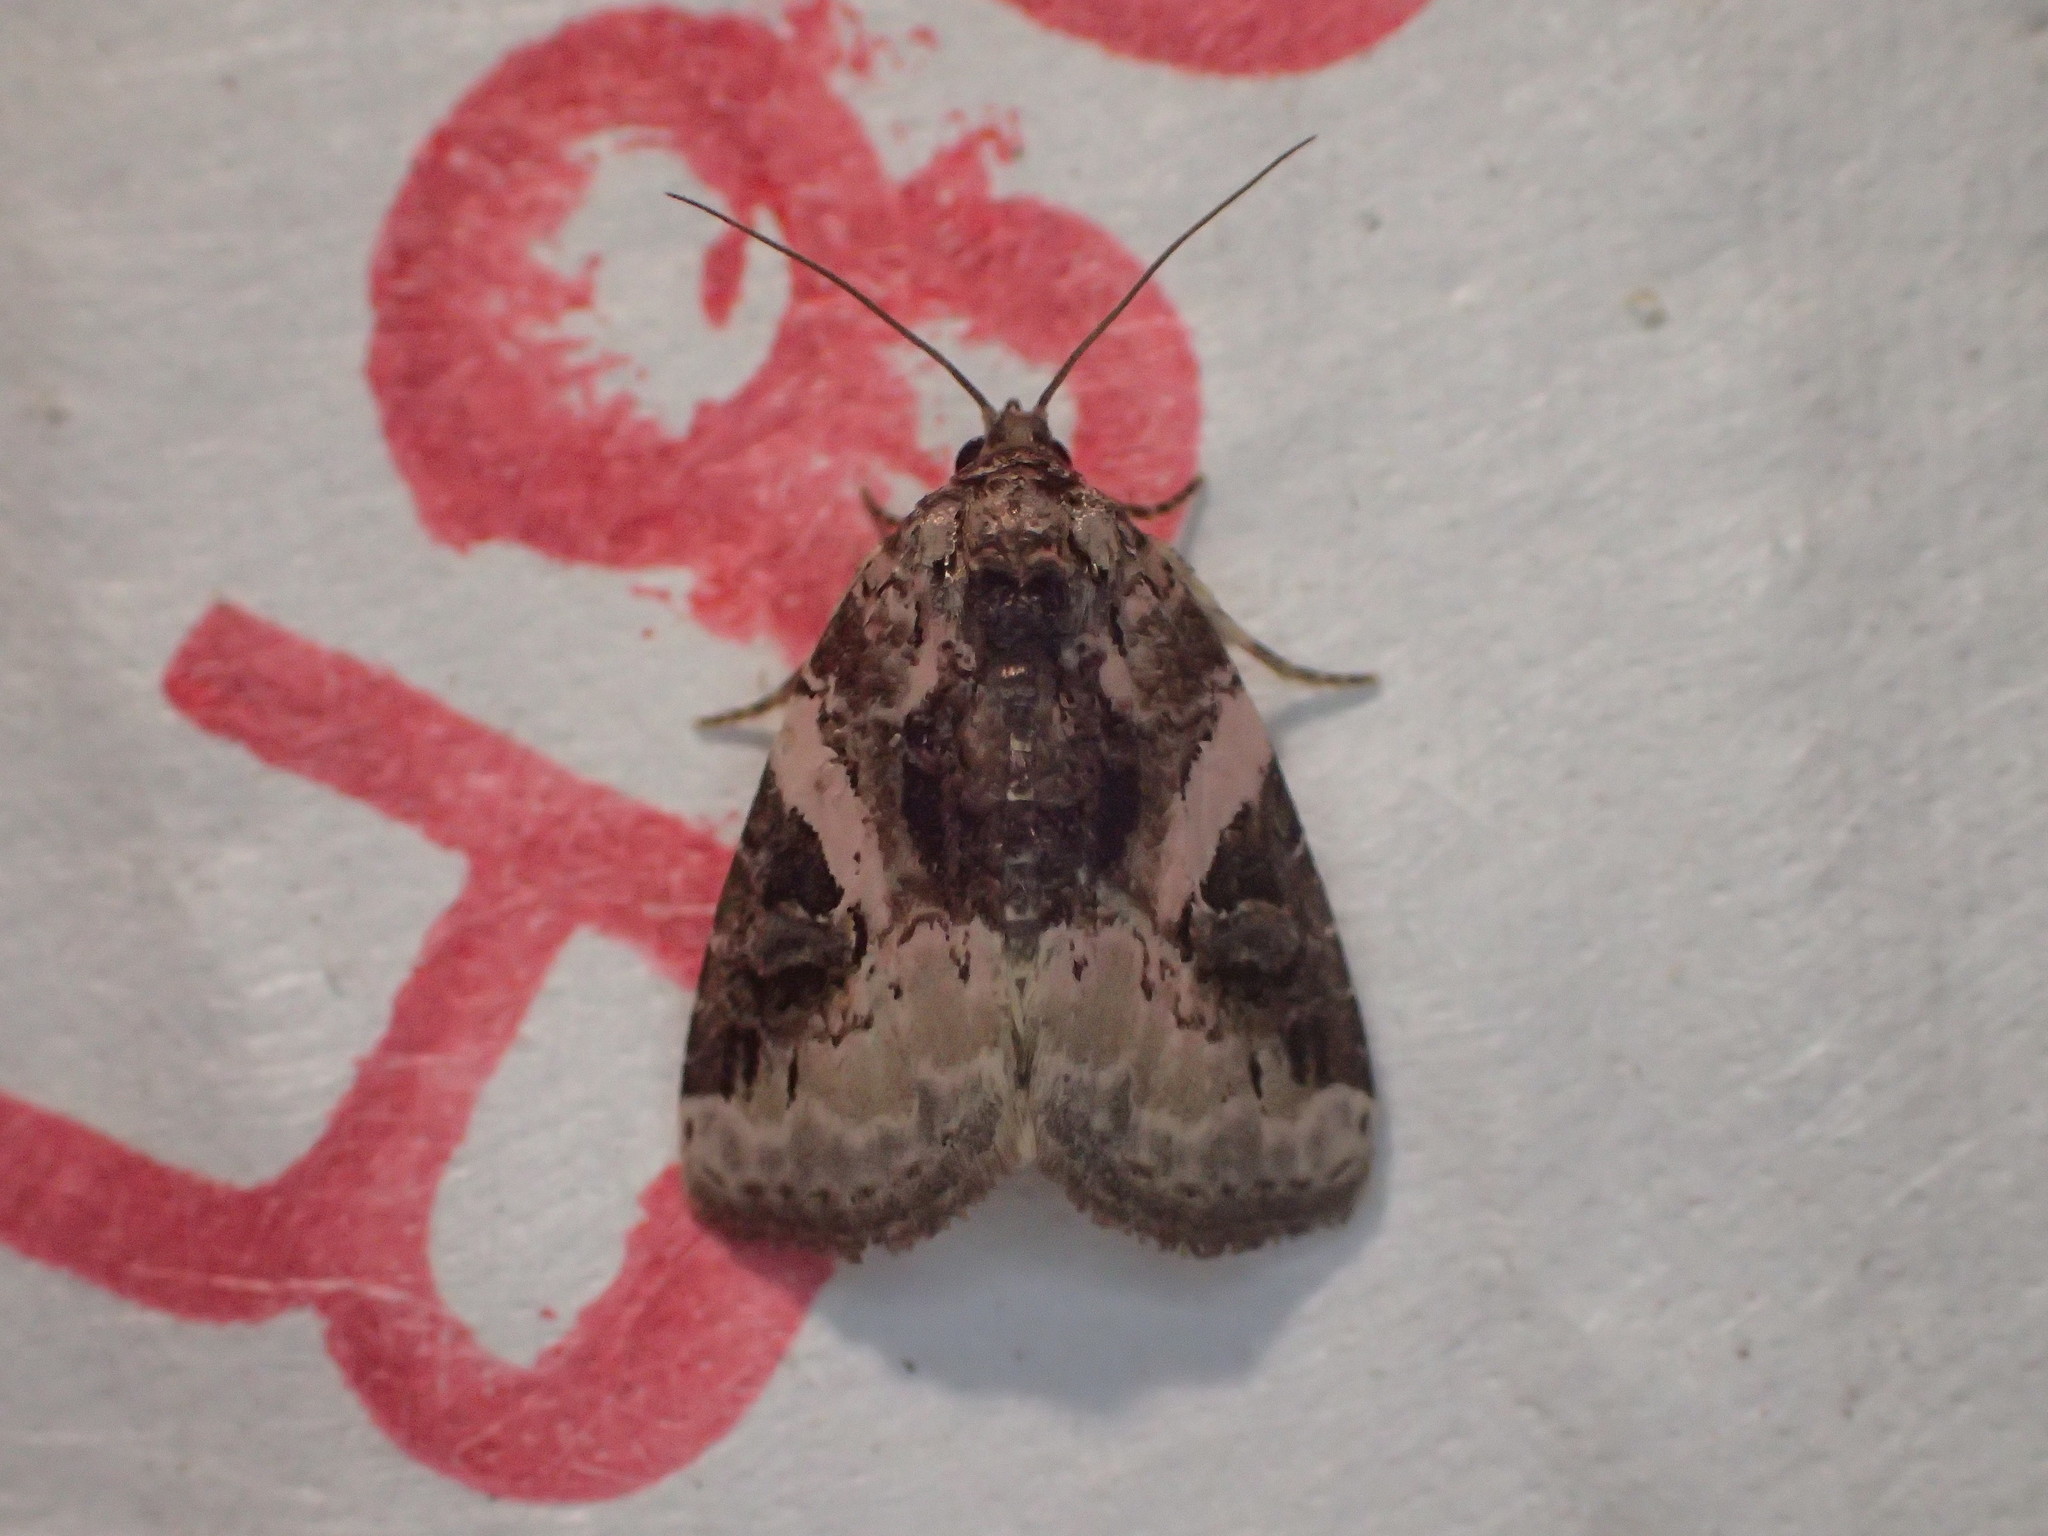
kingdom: Animalia
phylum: Arthropoda
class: Insecta
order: Lepidoptera
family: Noctuidae
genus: Pseudeustrotia
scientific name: Pseudeustrotia carneola
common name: Pink-barred lithacodia moth
